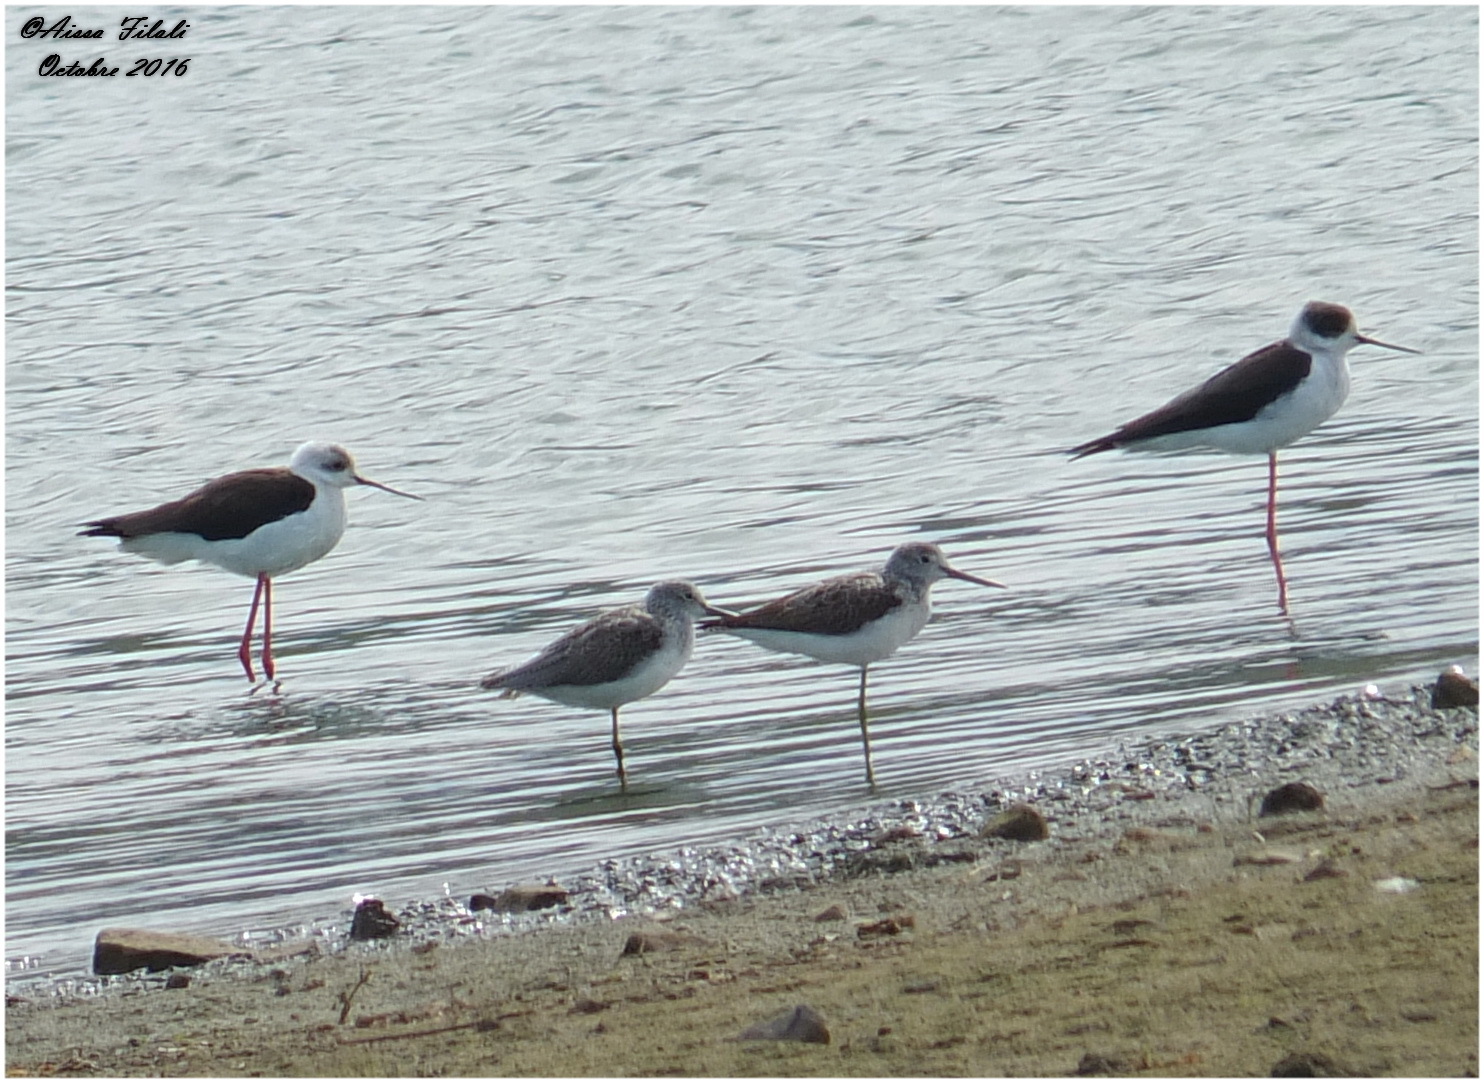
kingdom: Animalia
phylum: Chordata
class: Aves
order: Charadriiformes
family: Scolopacidae
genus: Tringa
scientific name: Tringa nebularia
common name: Common greenshank
